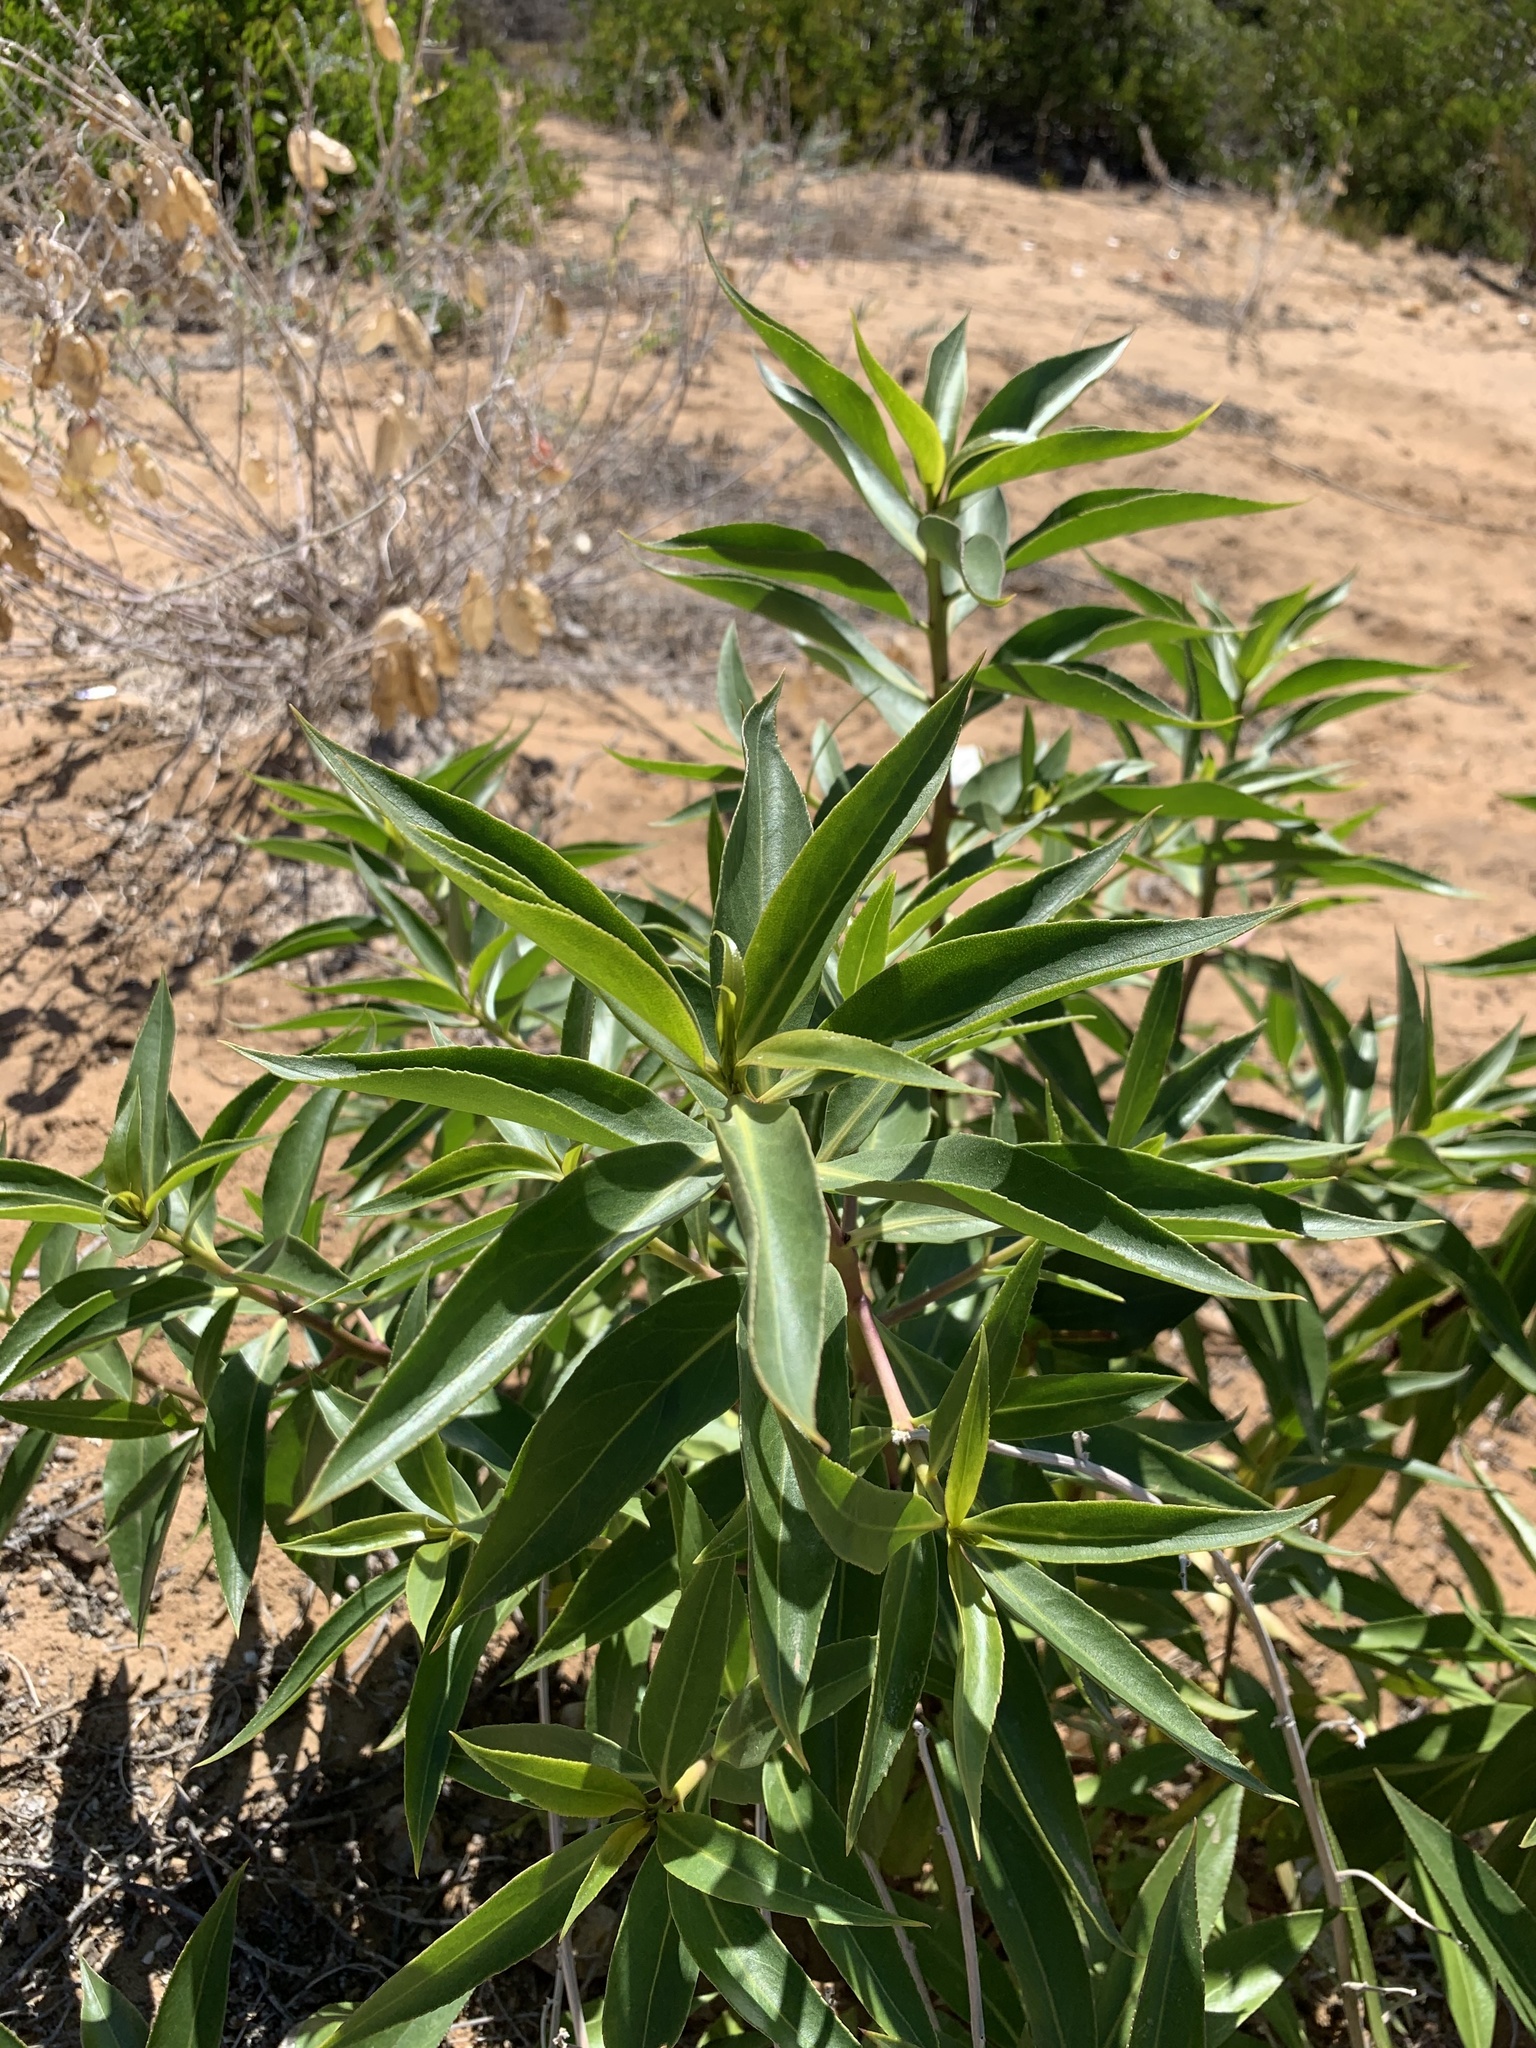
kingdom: Plantae
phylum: Tracheophyta
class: Magnoliopsida
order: Lamiales
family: Scrophulariaceae
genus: Myoporum
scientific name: Myoporum insulare
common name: Common boobialla
